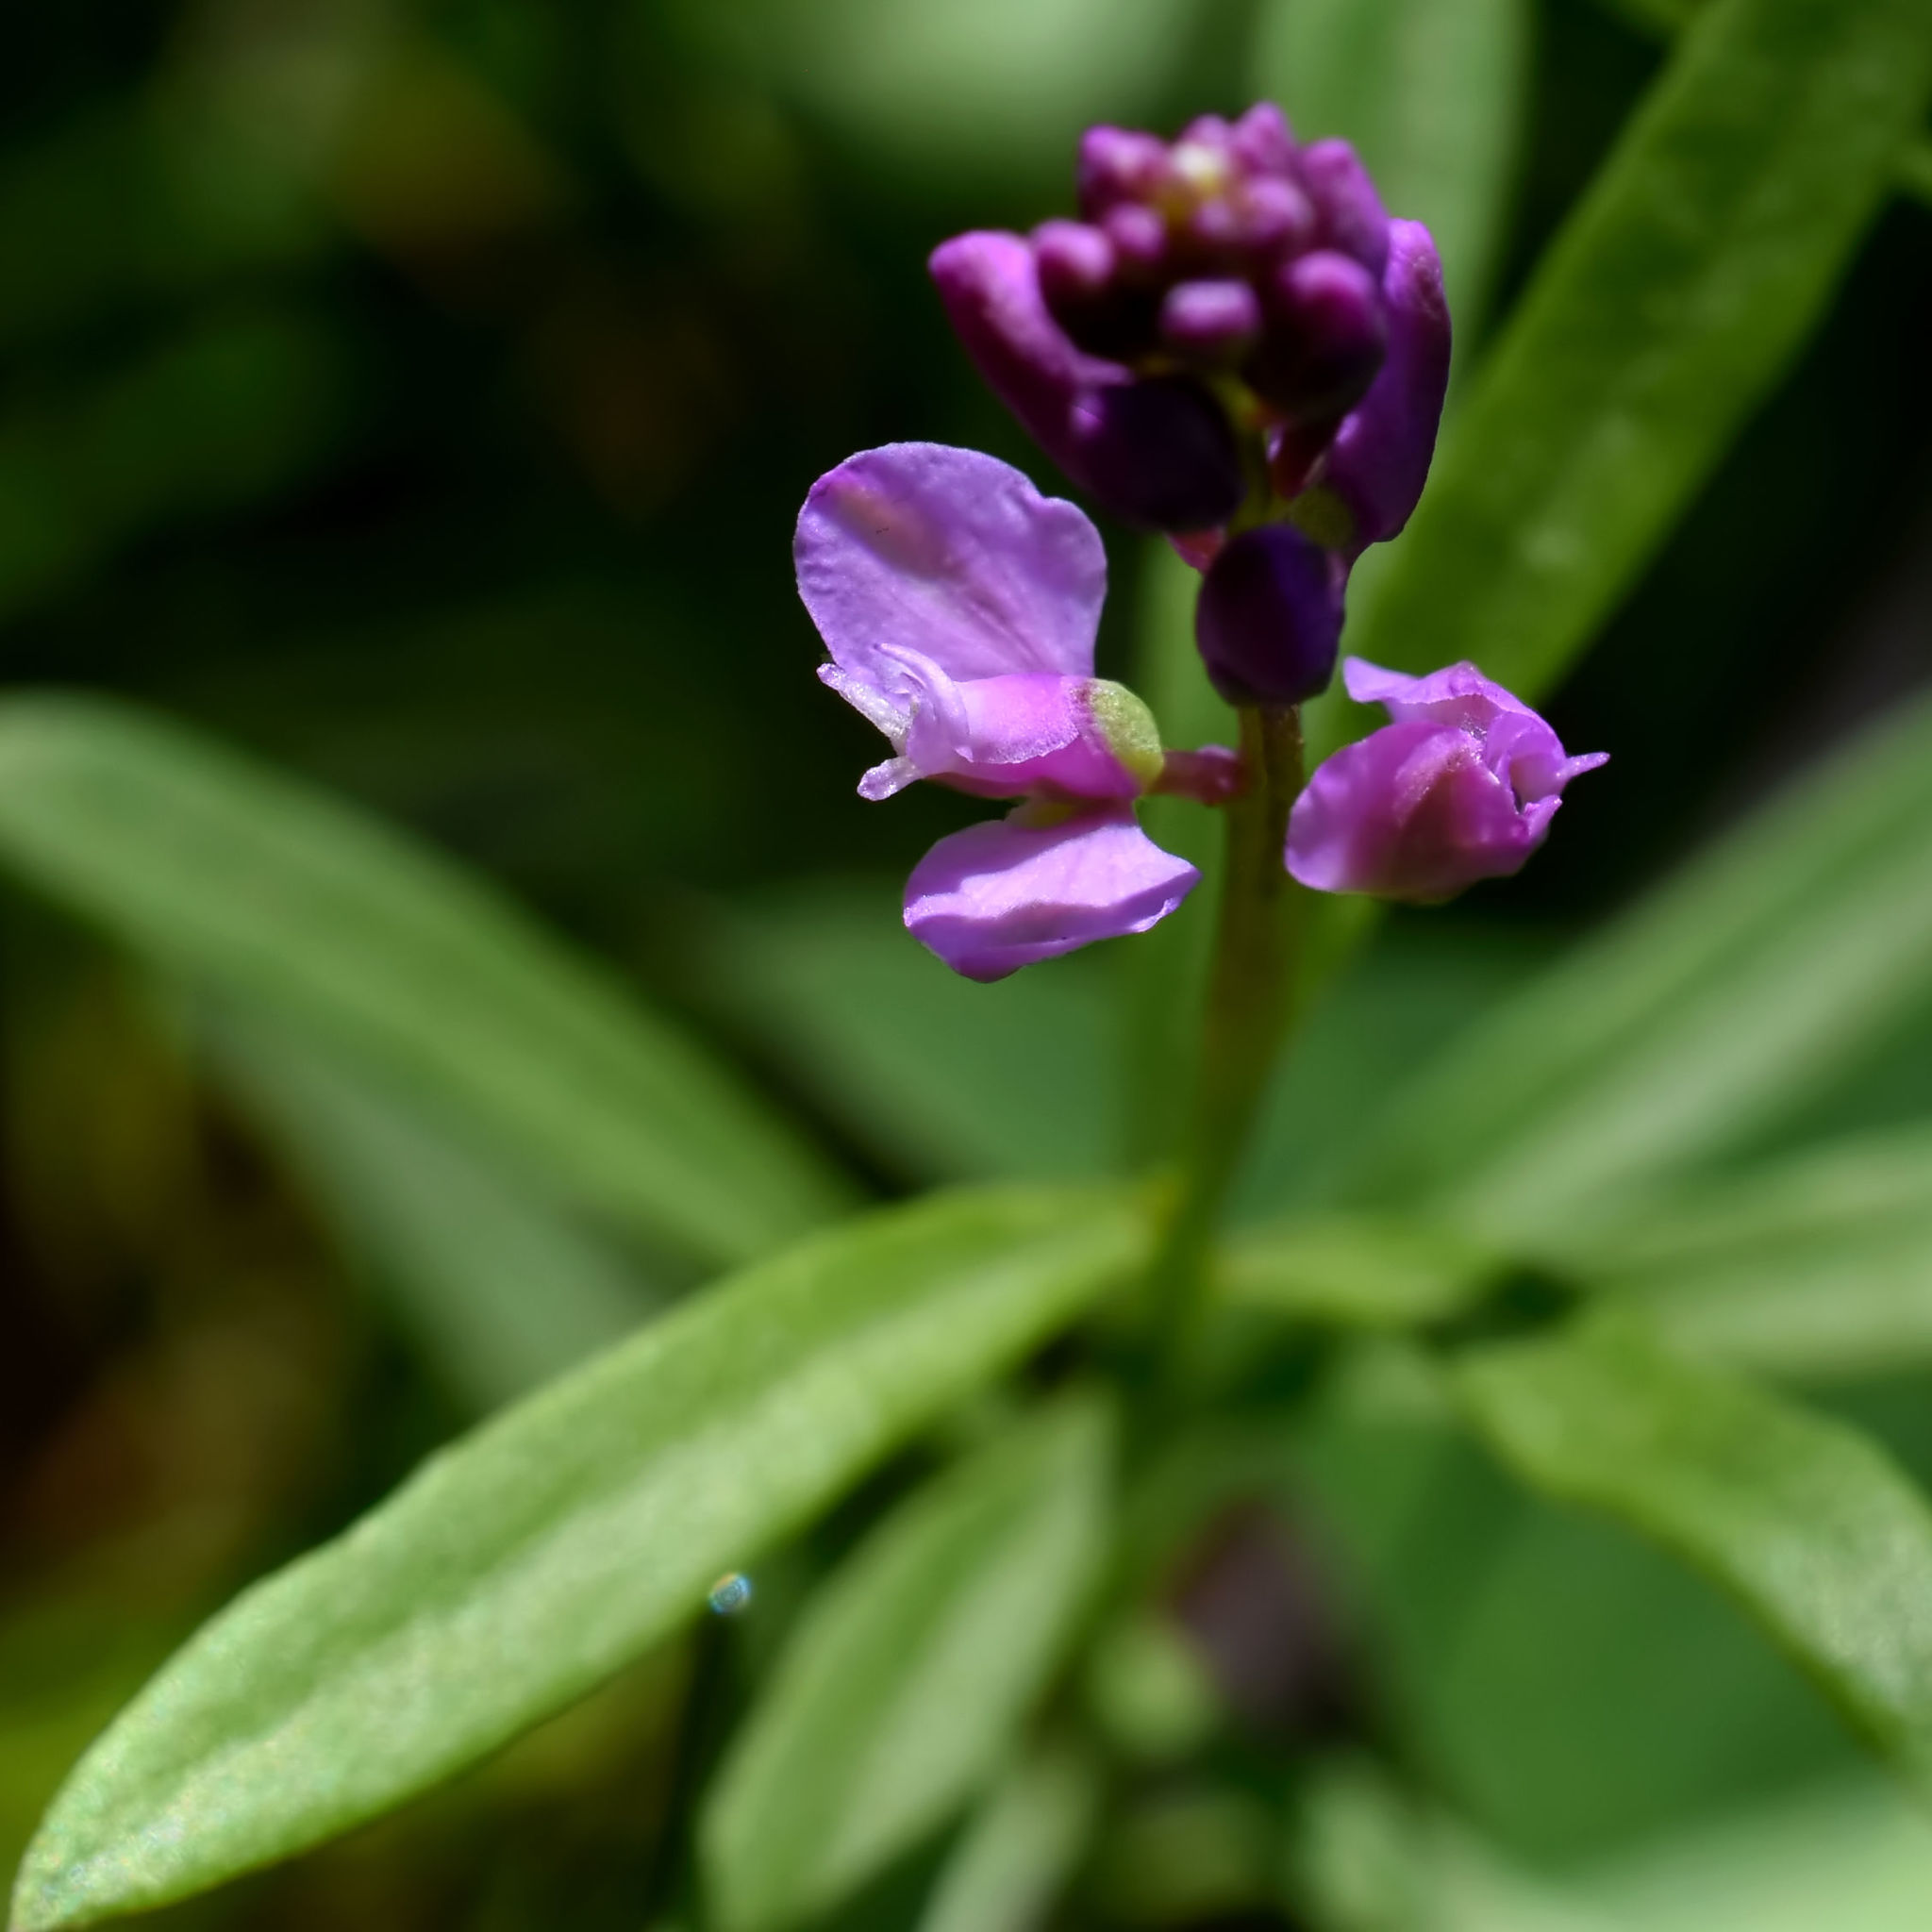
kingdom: Plantae
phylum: Tracheophyta
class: Magnoliopsida
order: Fabales
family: Polygalaceae
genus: Polygala
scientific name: Polygala polygama
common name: Bitter milkwort
